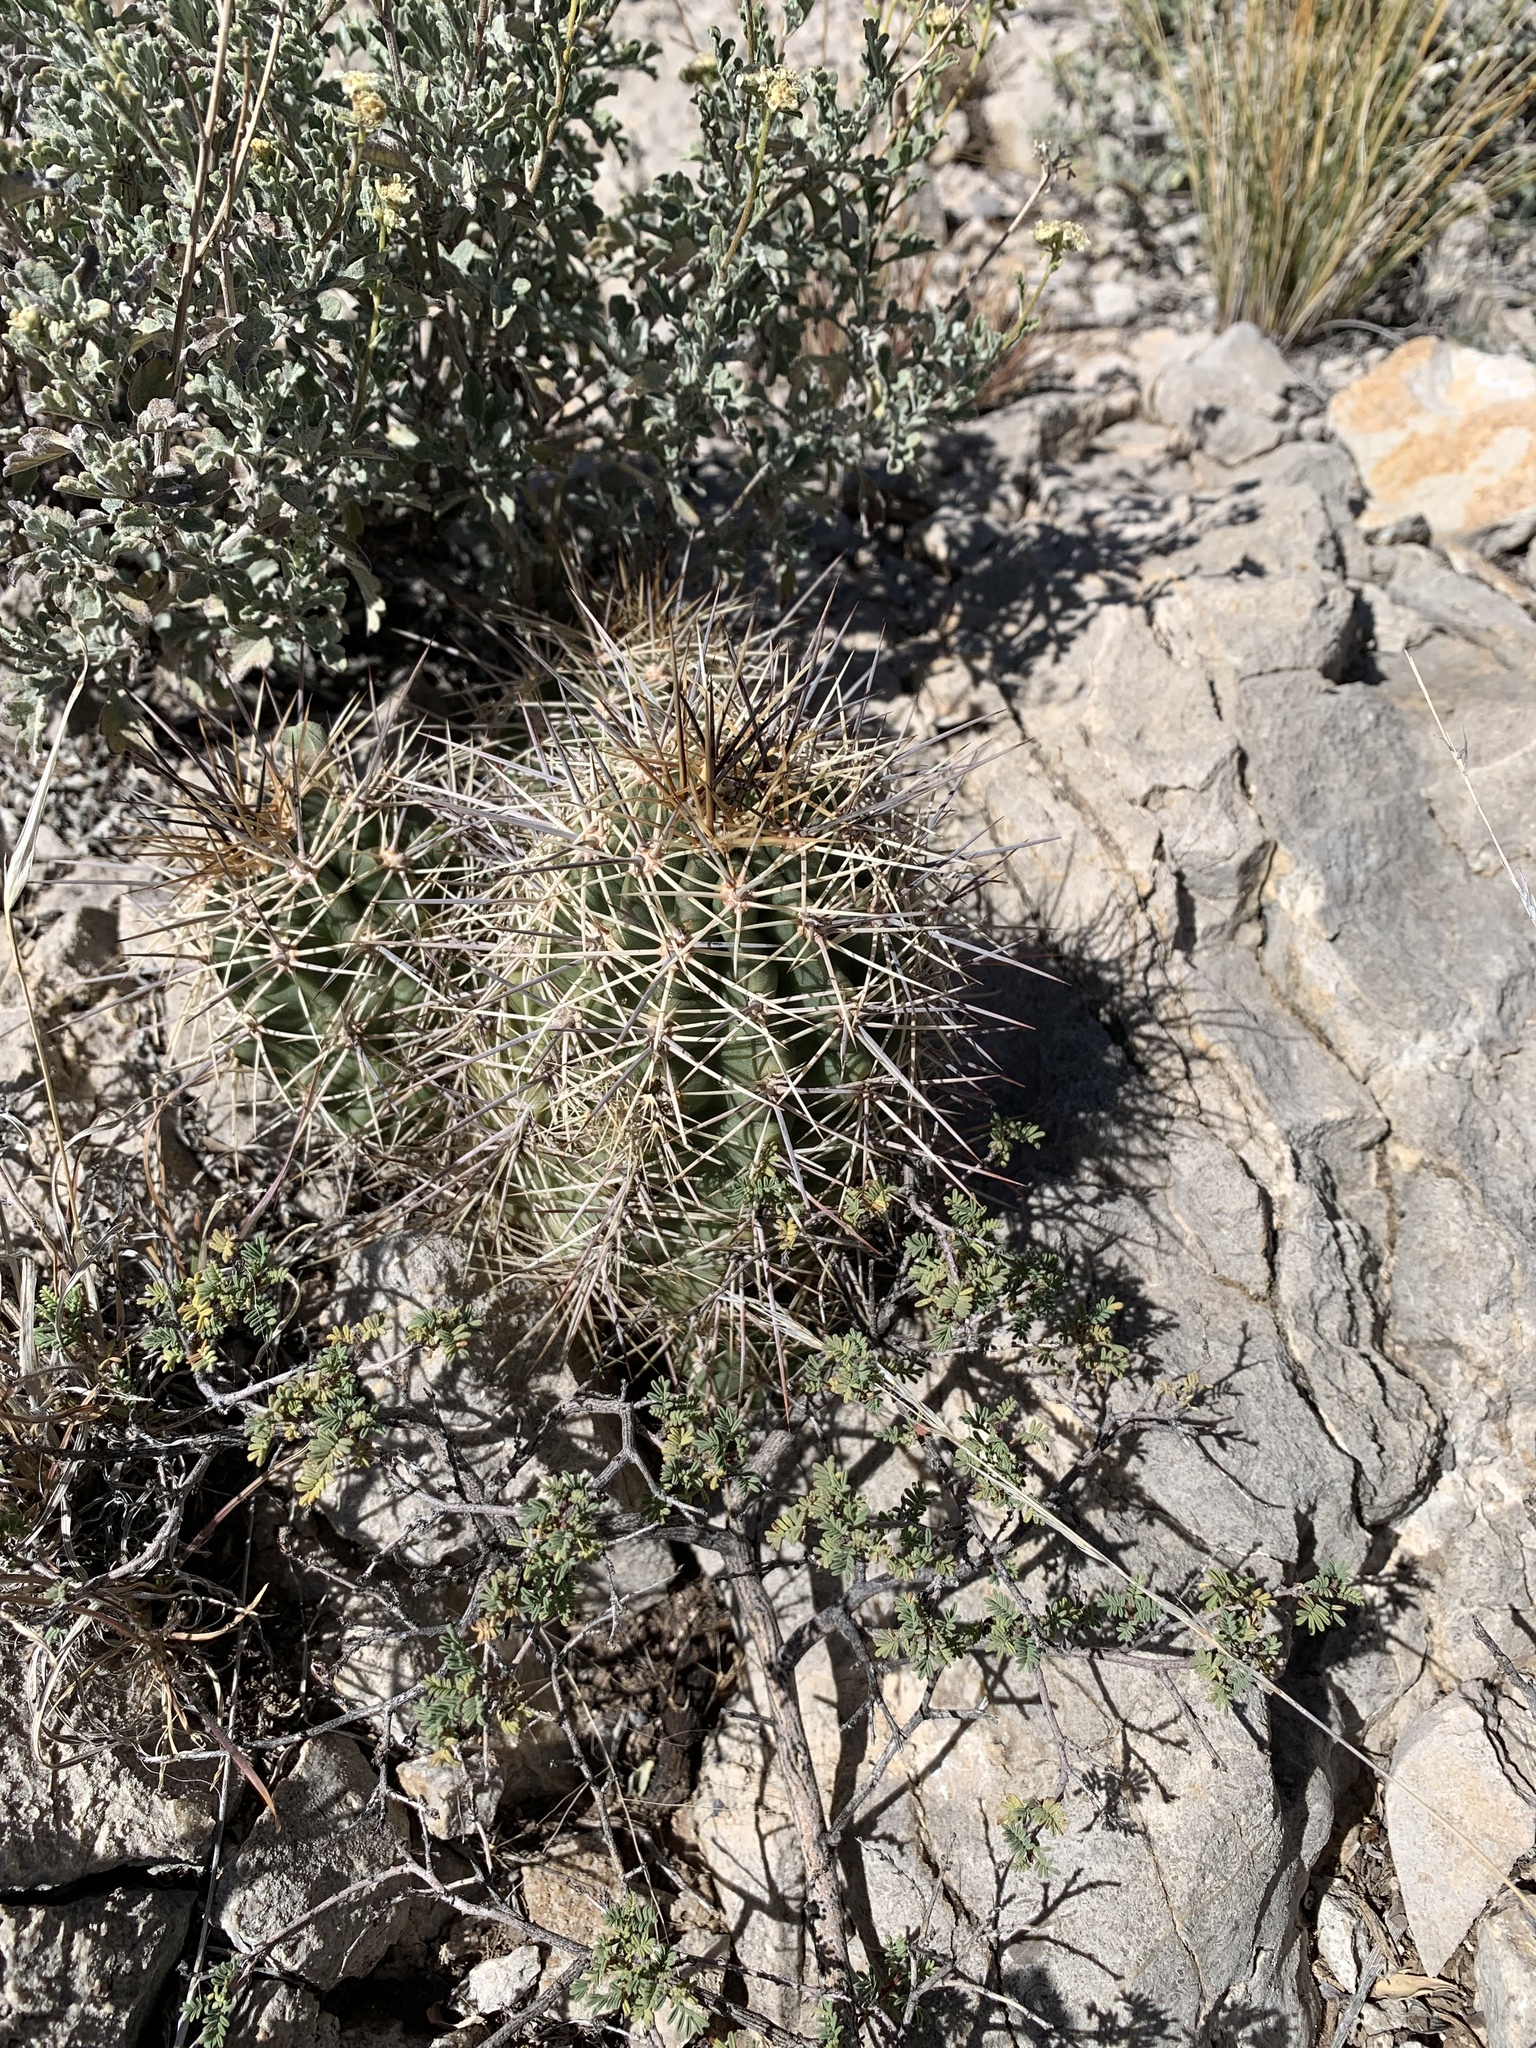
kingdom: Plantae
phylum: Tracheophyta
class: Magnoliopsida
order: Caryophyllales
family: Cactaceae
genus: Echinocereus
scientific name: Echinocereus coccineus
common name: Scarlet hedgehog cactus
